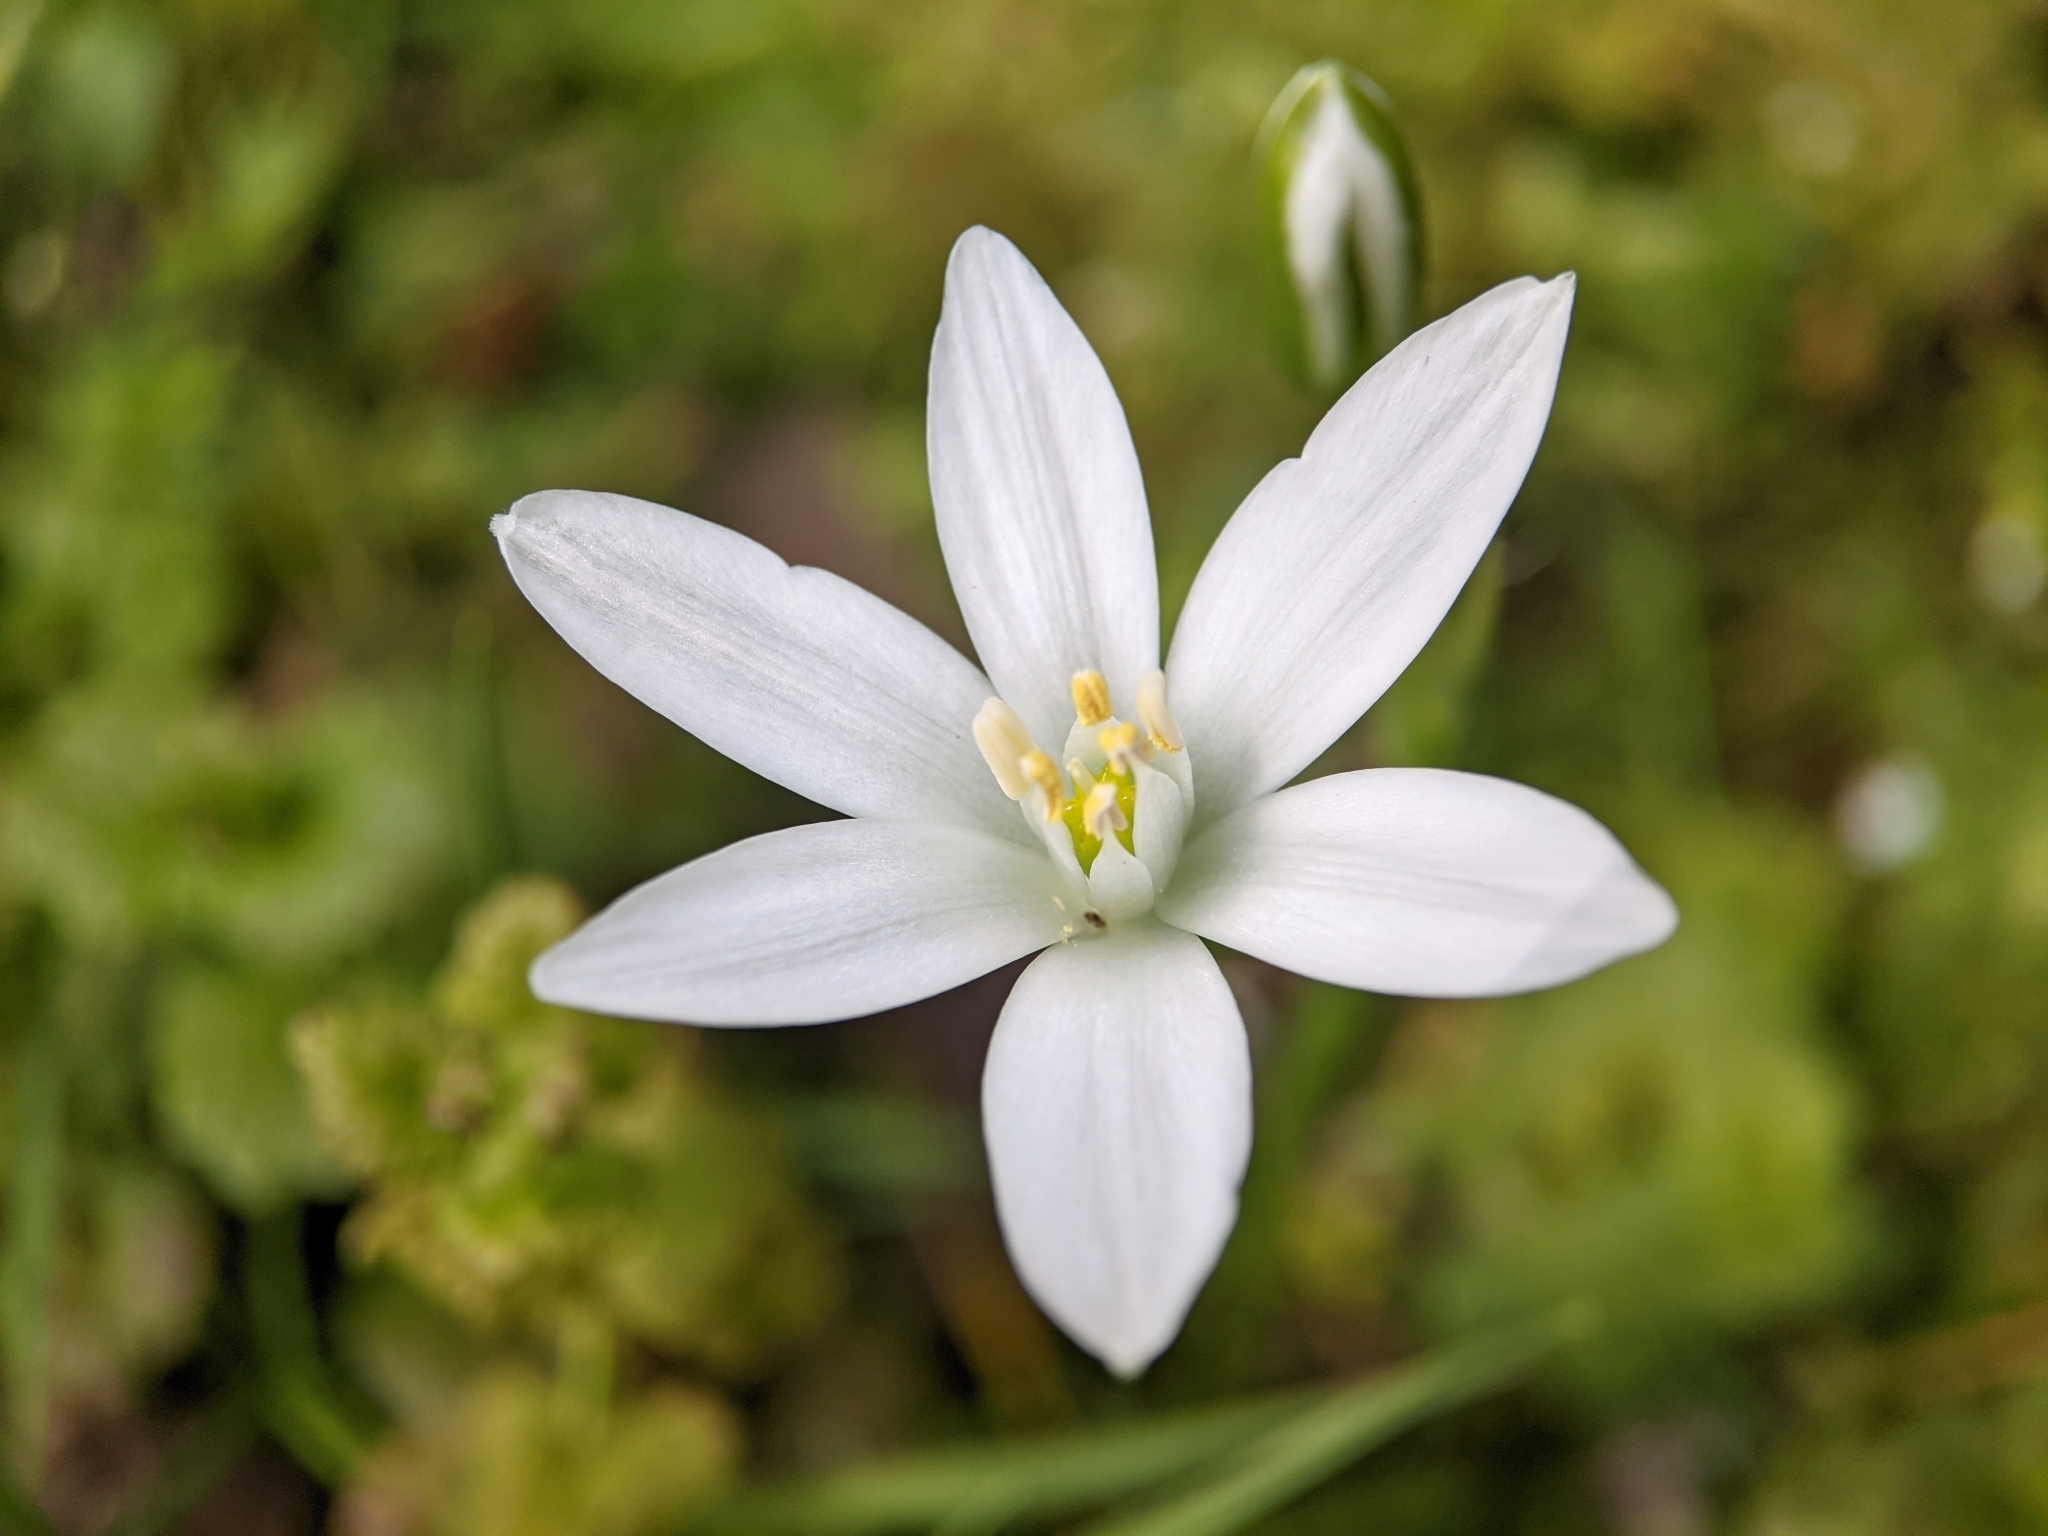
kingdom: Plantae
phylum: Tracheophyta
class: Liliopsida
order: Asparagales
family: Asparagaceae
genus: Ornithogalum
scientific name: Ornithogalum umbellatum
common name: Garden star-of-bethlehem
